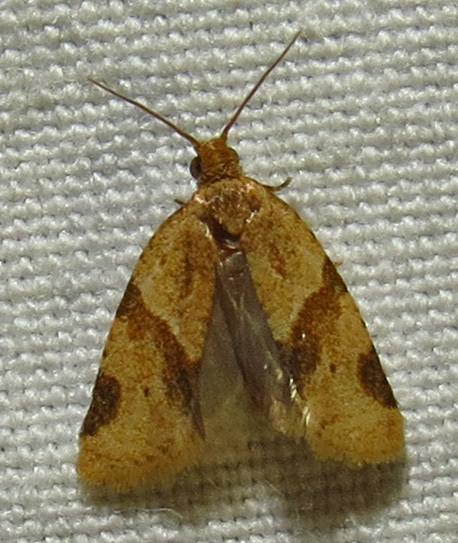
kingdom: Animalia
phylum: Arthropoda
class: Insecta
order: Lepidoptera
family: Tortricidae
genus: Clepsis
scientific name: Clepsis peritana
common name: Garden tortrix
